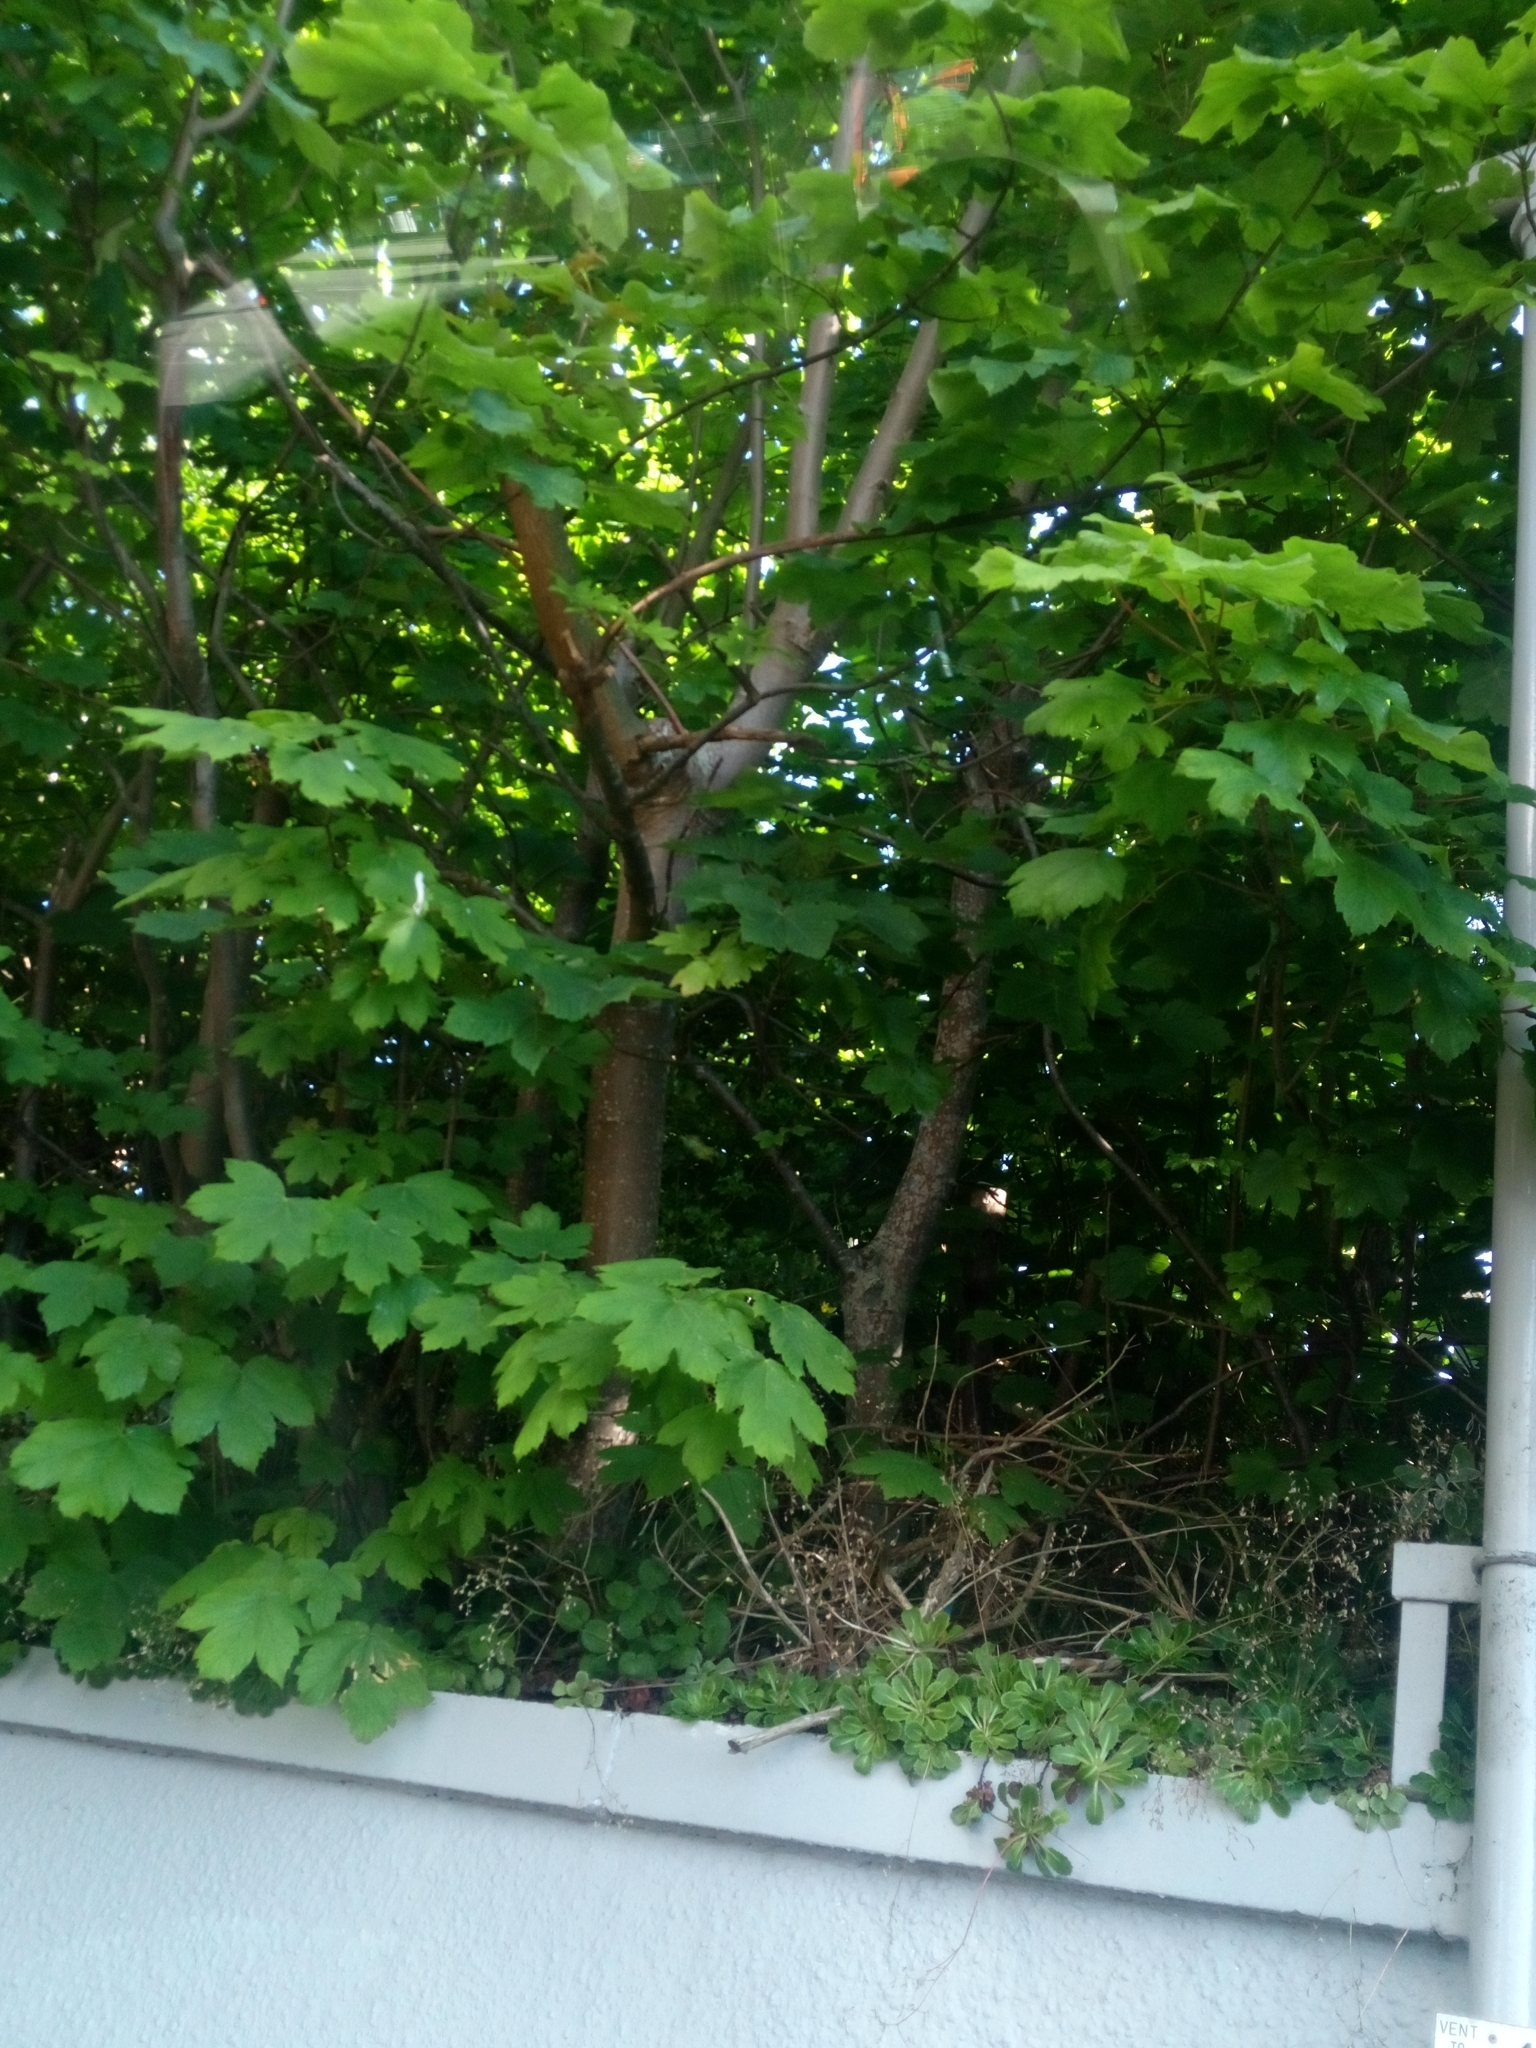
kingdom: Plantae
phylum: Tracheophyta
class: Magnoliopsida
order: Sapindales
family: Sapindaceae
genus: Acer
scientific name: Acer pseudoplatanus
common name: Sycamore
